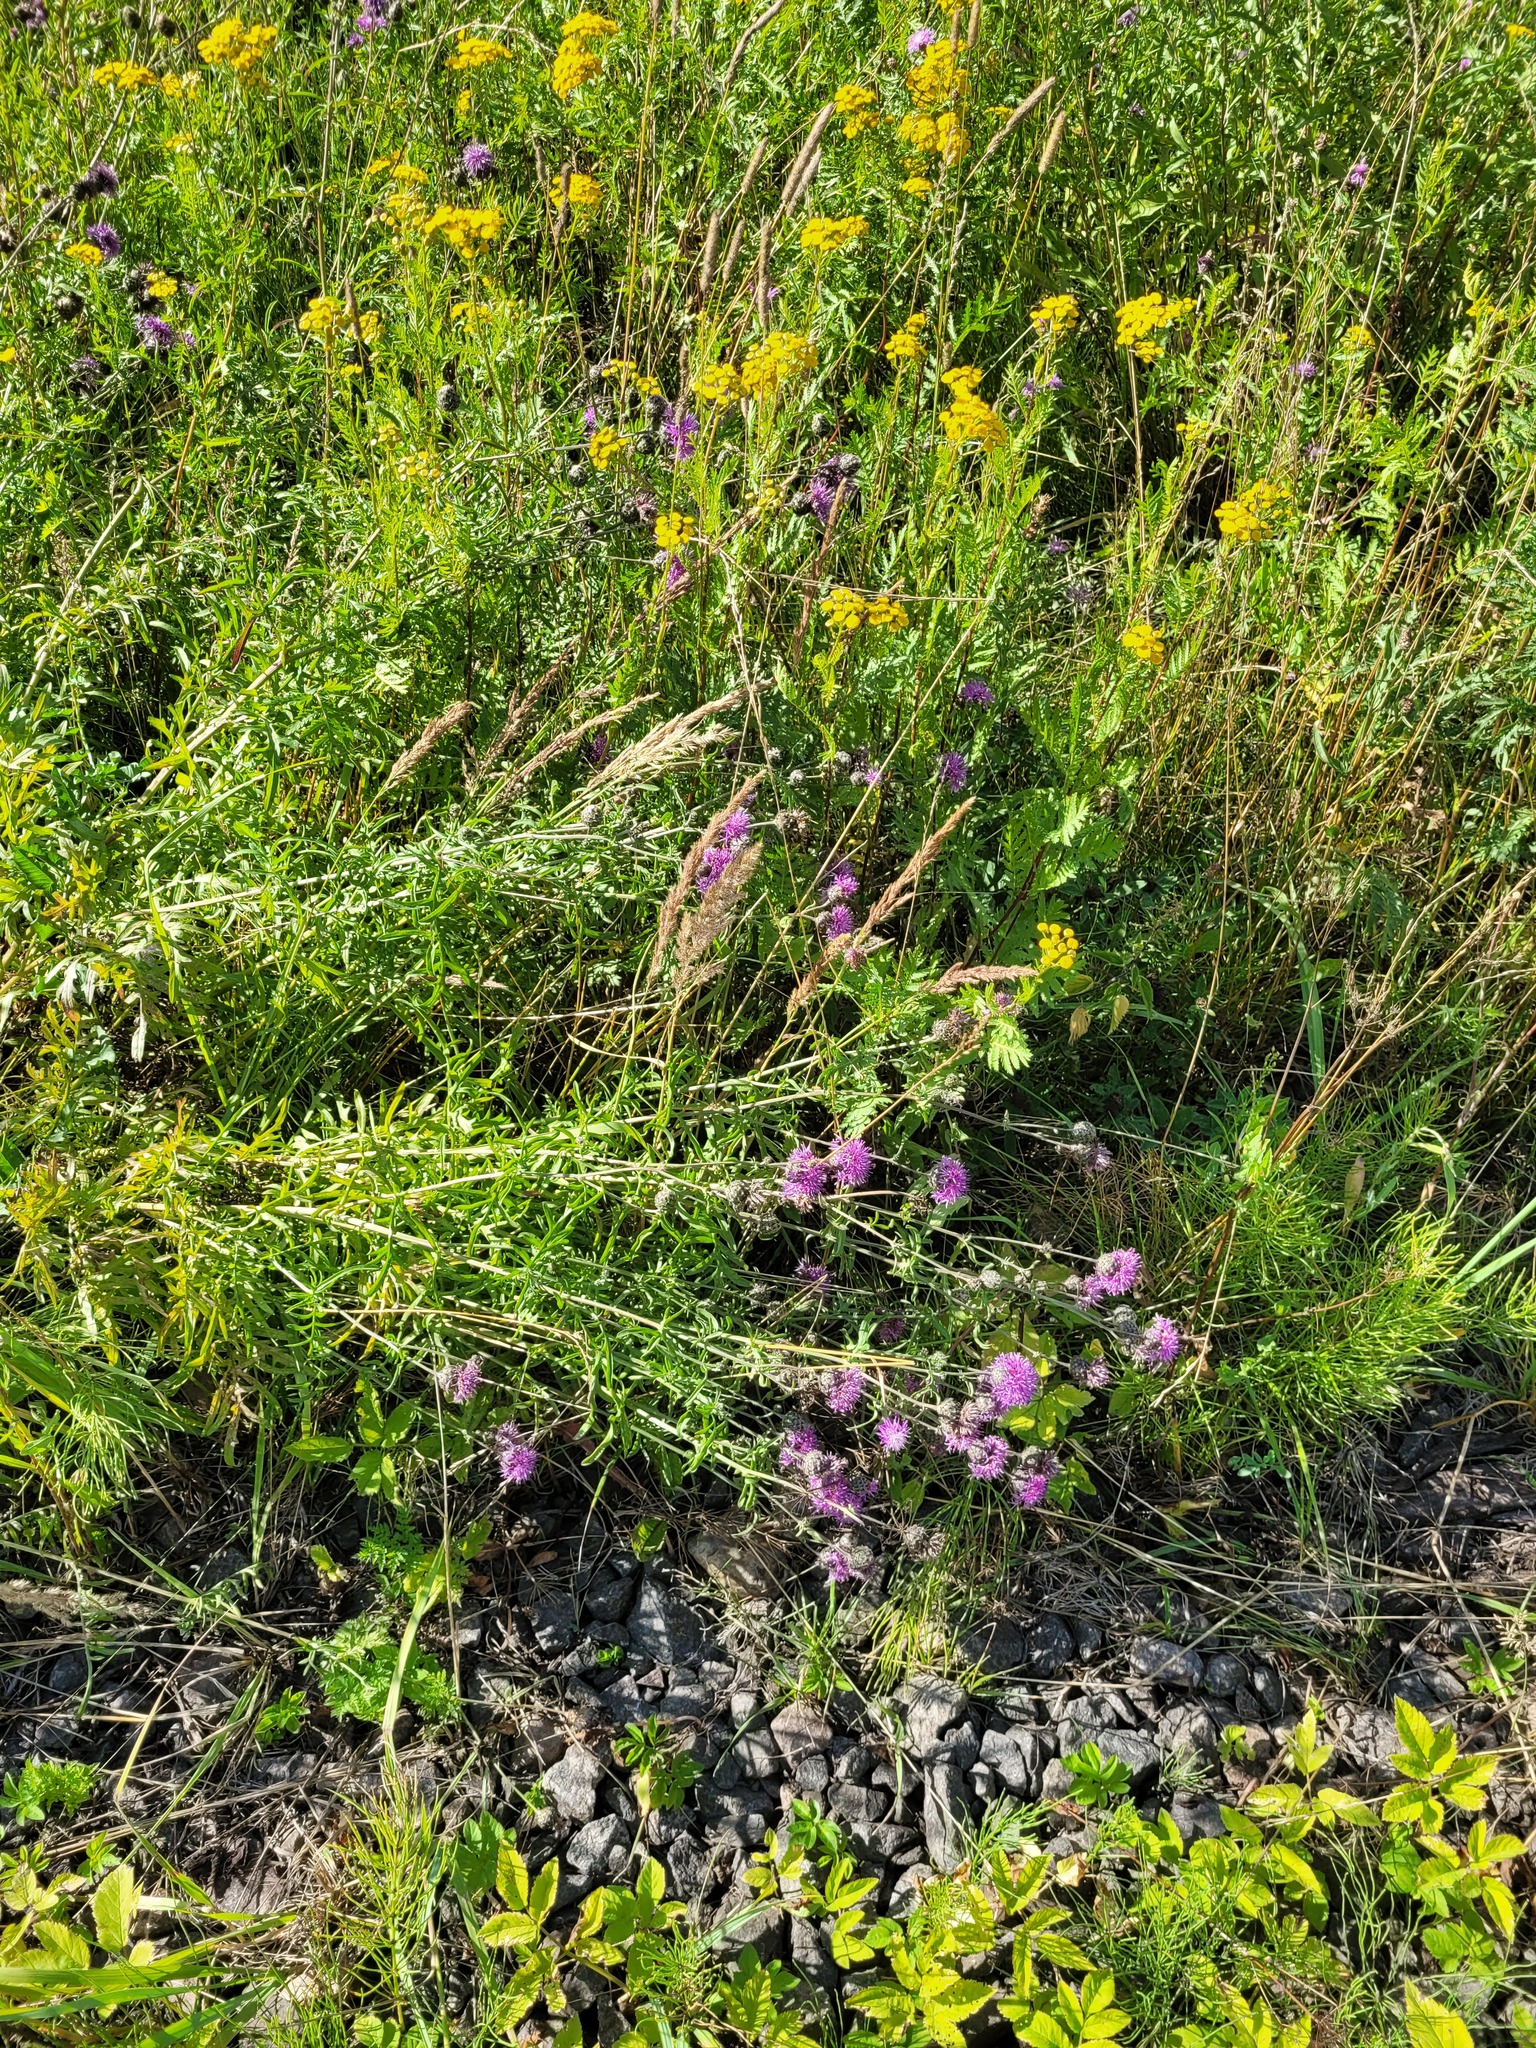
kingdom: Plantae
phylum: Tracheophyta
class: Magnoliopsida
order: Asterales
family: Asteraceae
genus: Centaurea
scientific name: Centaurea scabiosa
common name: Greater knapweed
